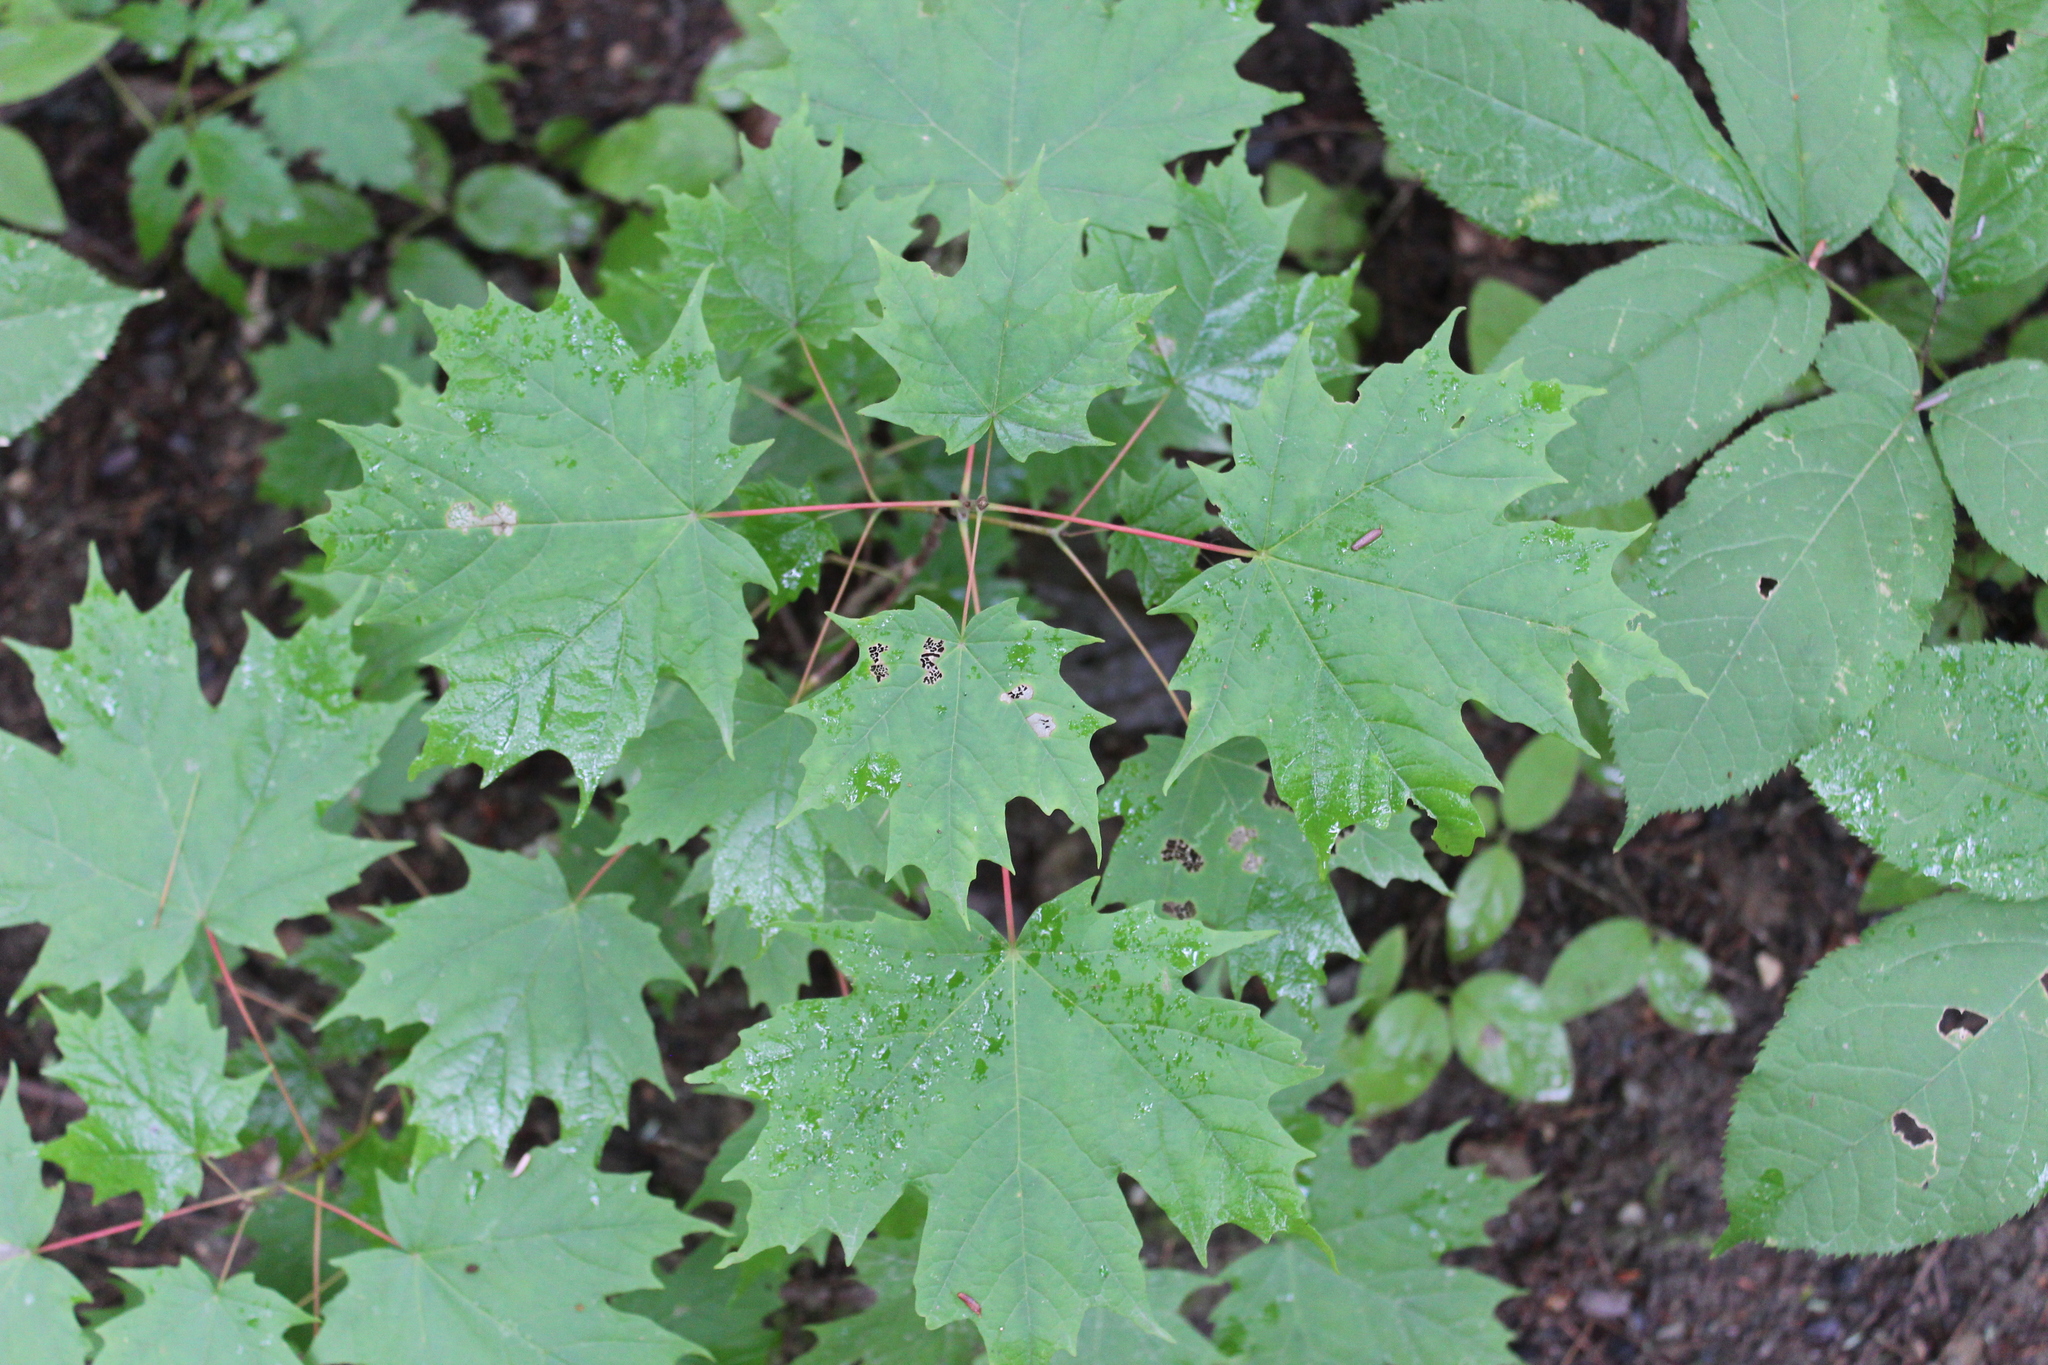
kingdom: Plantae
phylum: Tracheophyta
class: Magnoliopsida
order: Sapindales
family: Sapindaceae
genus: Acer
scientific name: Acer saccharum
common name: Sugar maple
